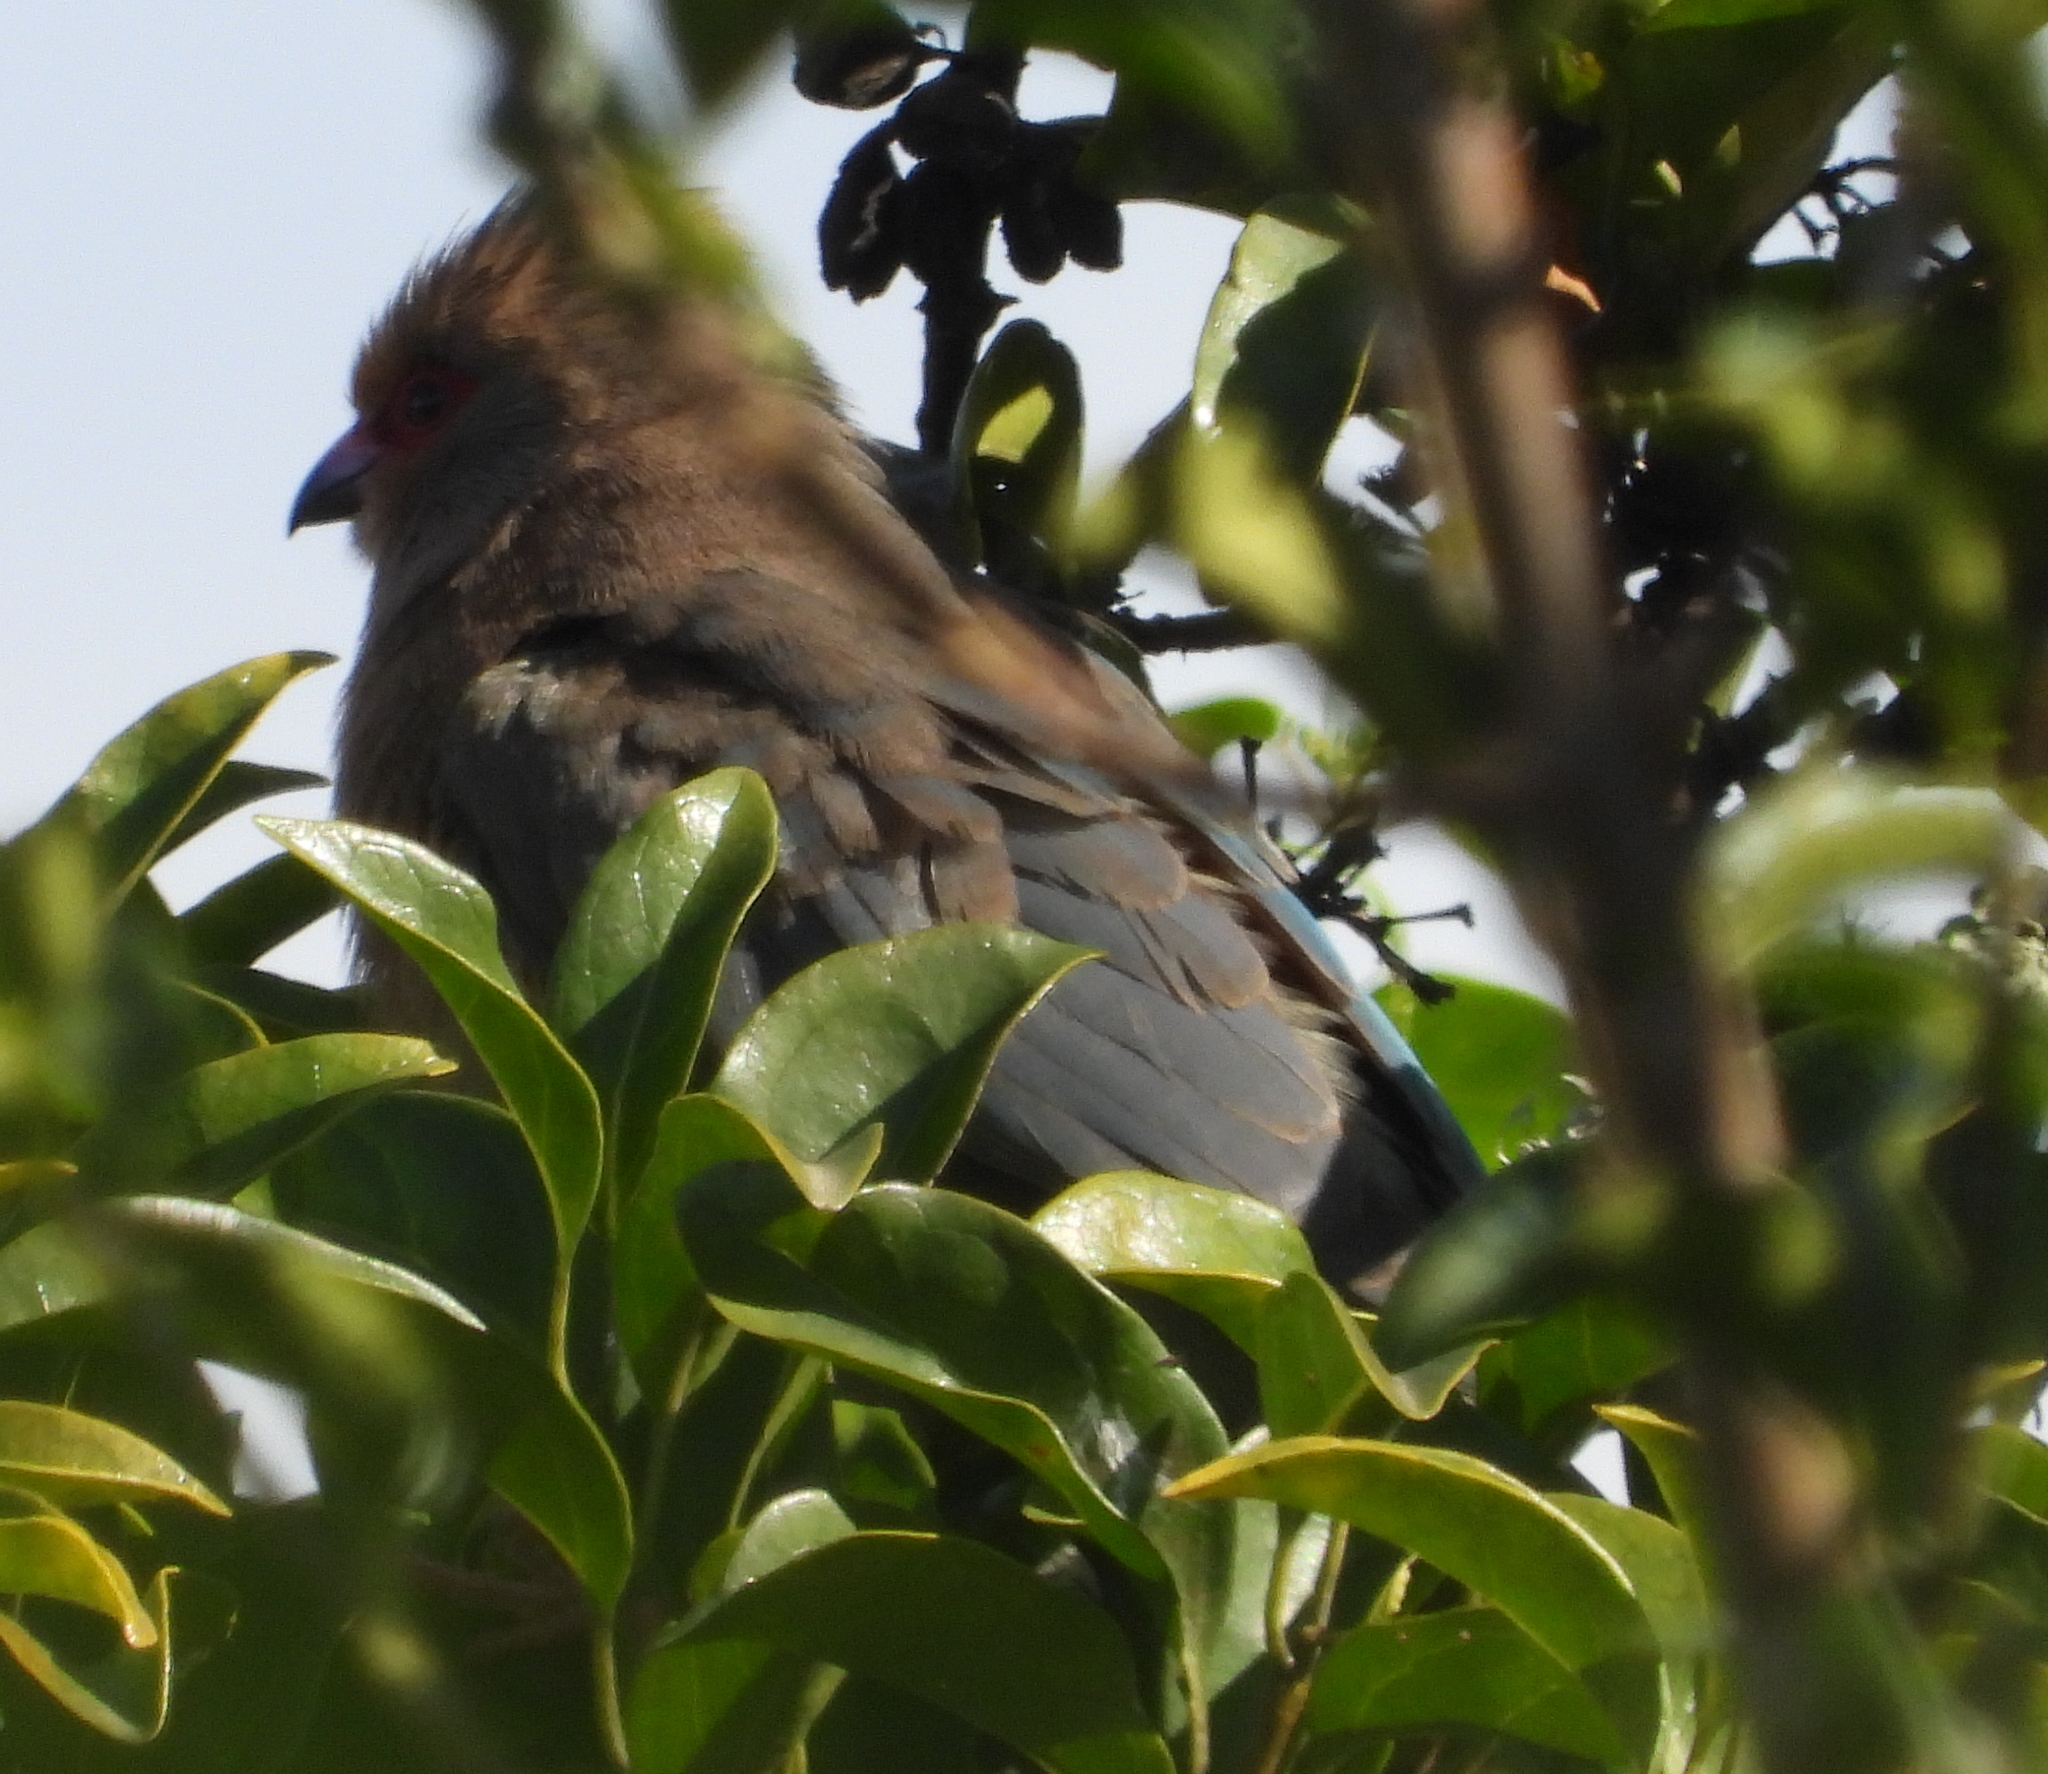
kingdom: Animalia
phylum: Chordata
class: Aves
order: Coliiformes
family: Coliidae
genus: Urocolius
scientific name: Urocolius indicus
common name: Red-faced mousebird
